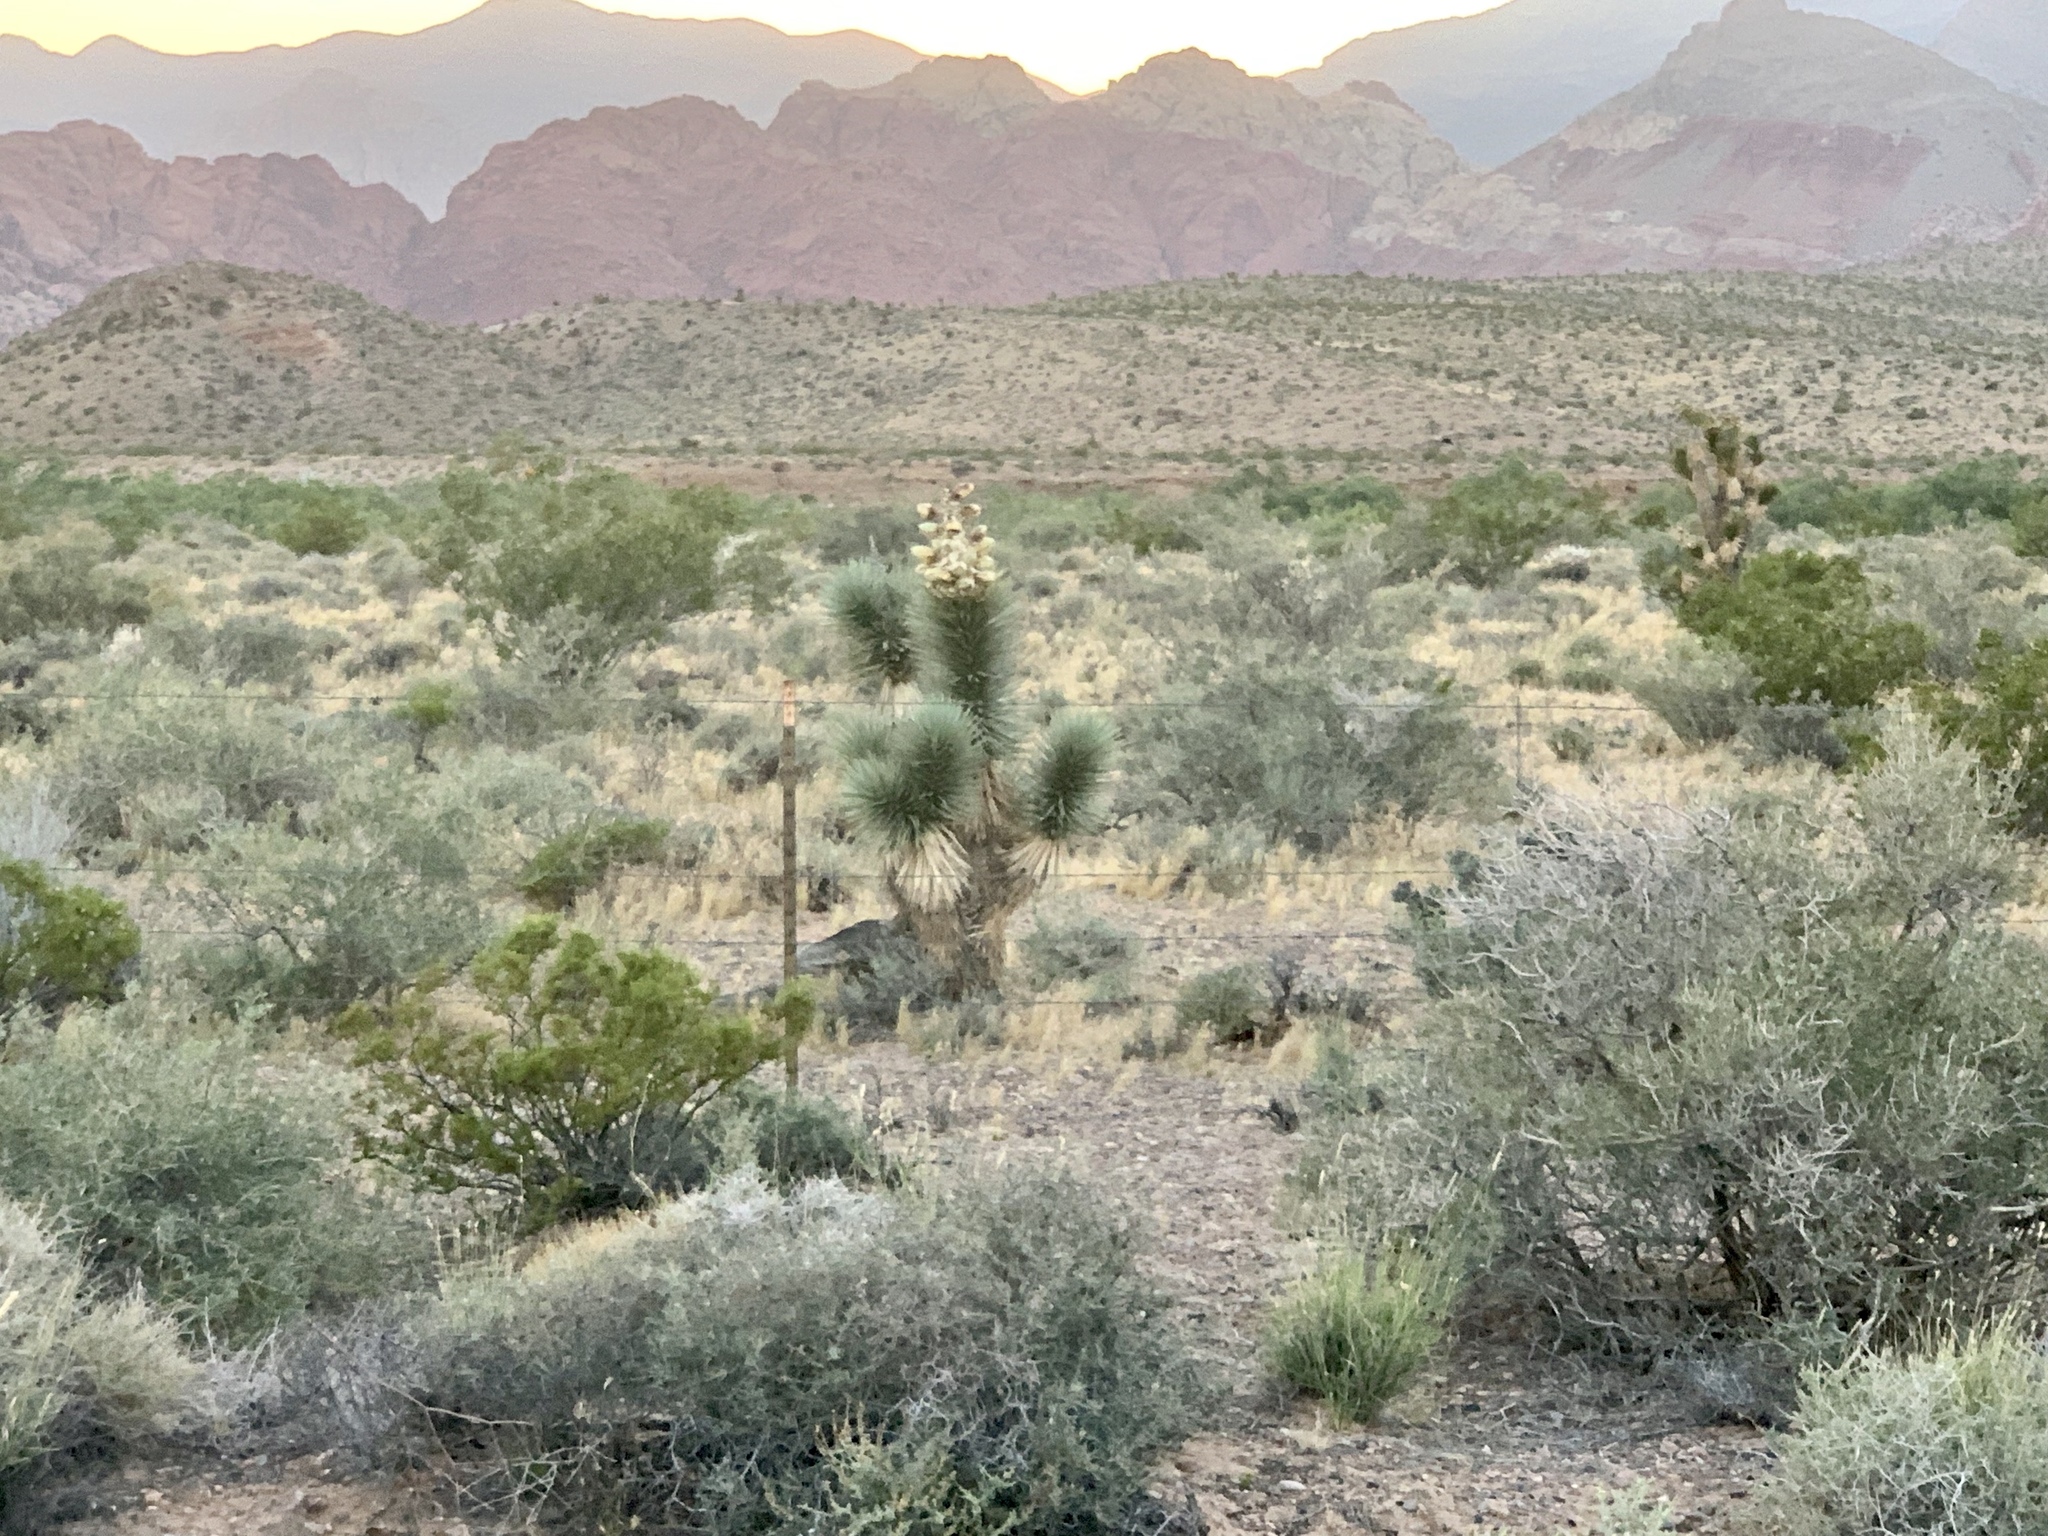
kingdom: Plantae
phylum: Tracheophyta
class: Liliopsida
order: Asparagales
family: Asparagaceae
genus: Yucca
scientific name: Yucca brevifolia
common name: Joshua tree
